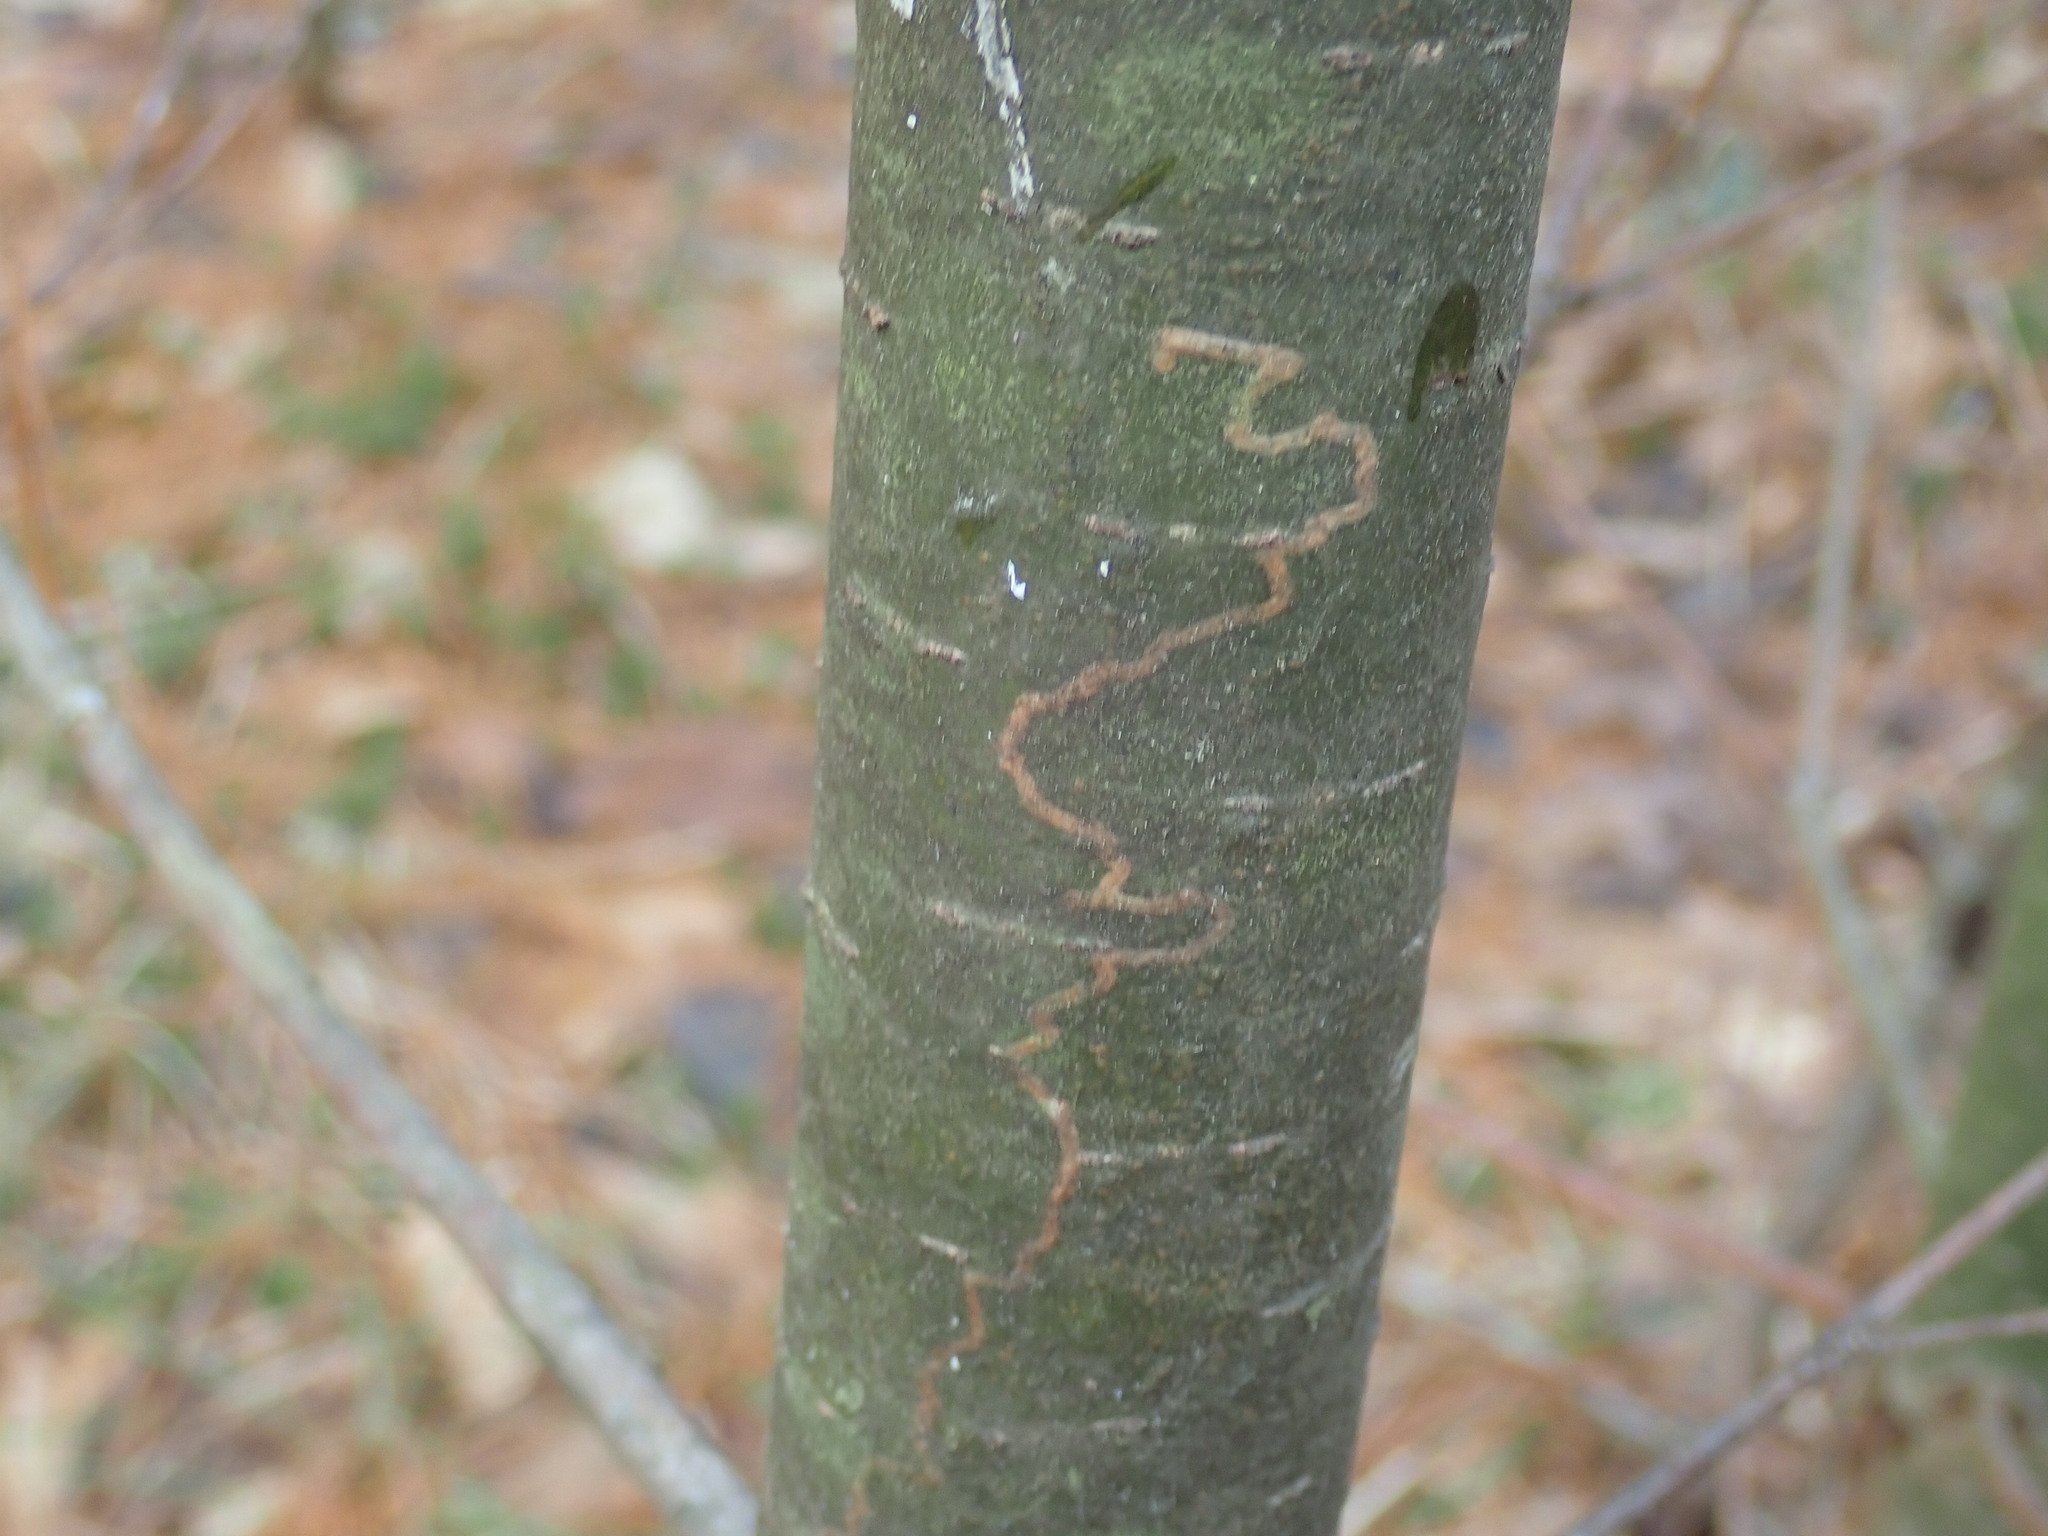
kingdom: Animalia
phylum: Arthropoda
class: Insecta
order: Lepidoptera
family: Gracillariidae
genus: Marmara
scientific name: Marmara fasciella
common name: White pine barkminer moth
